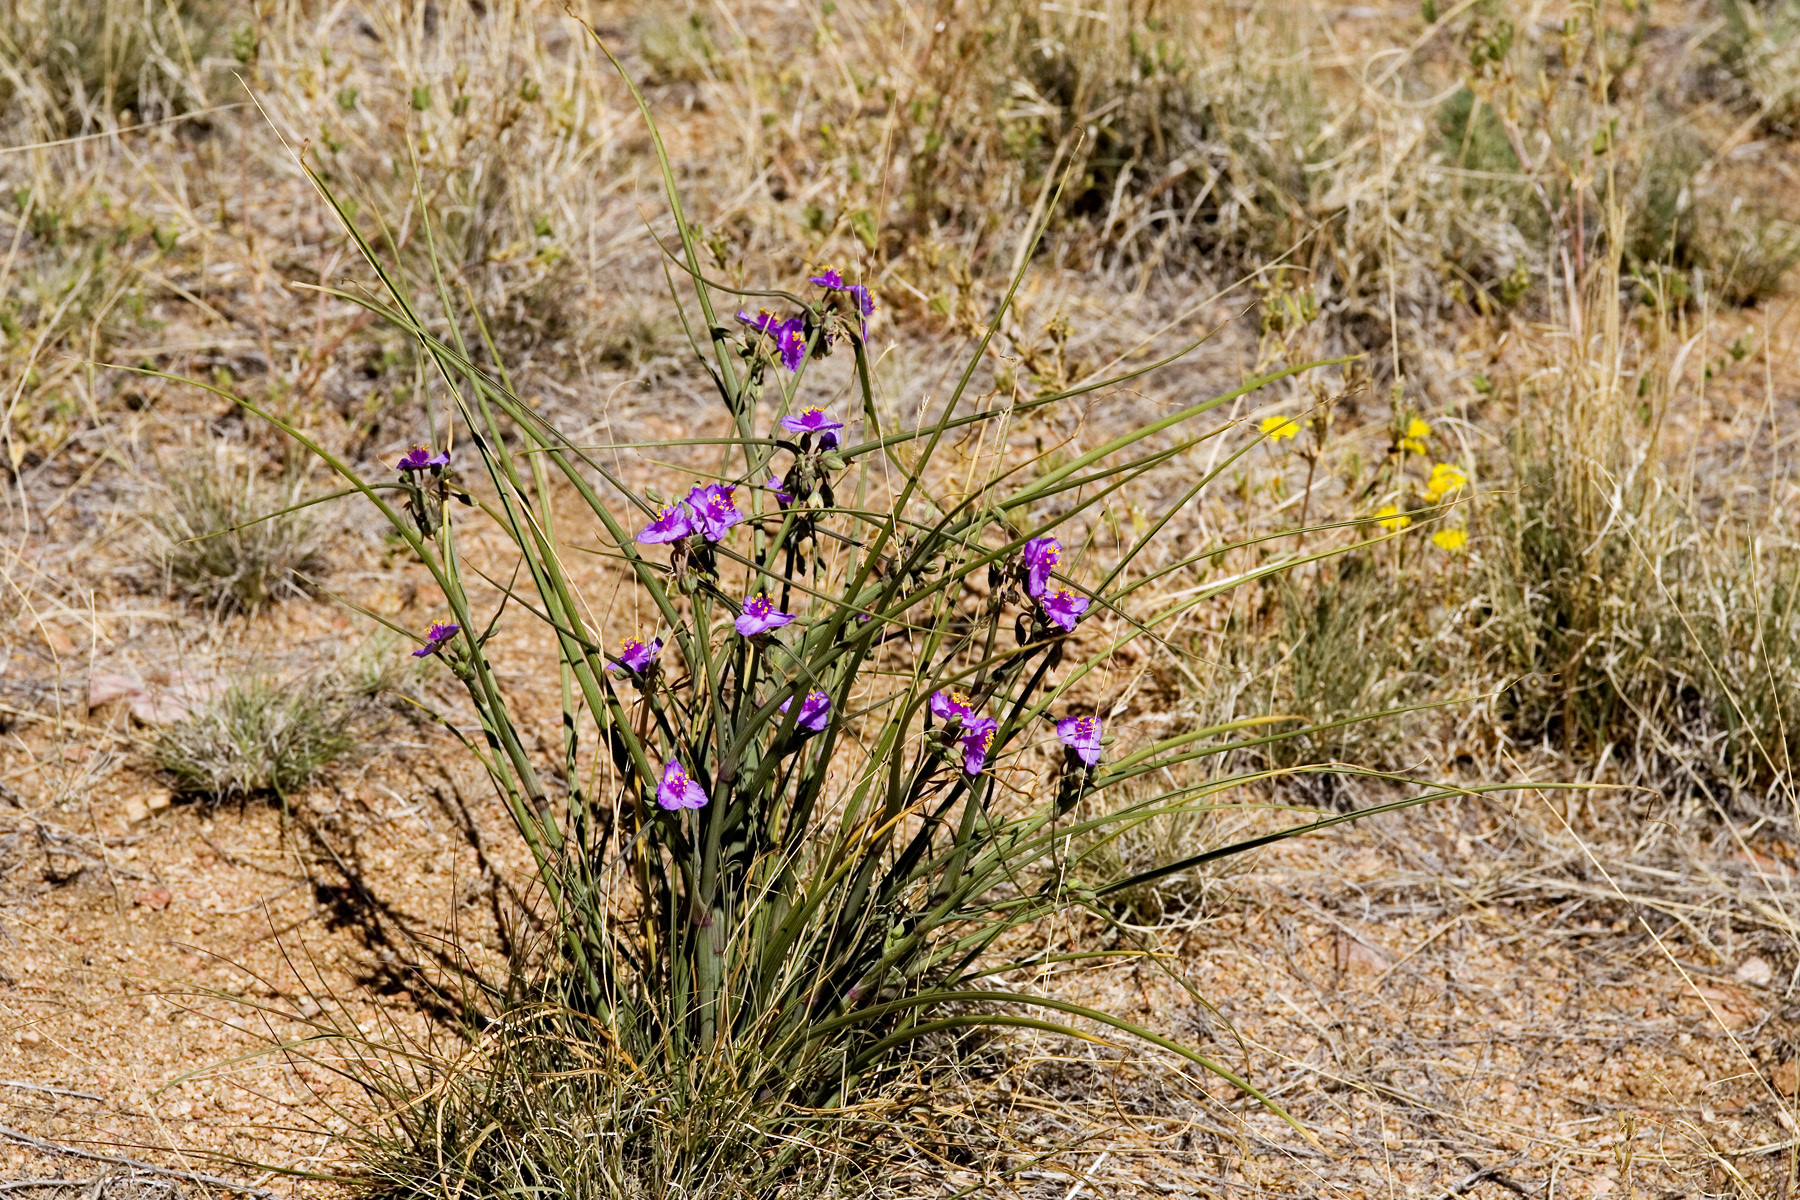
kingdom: Plantae
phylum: Tracheophyta
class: Liliopsida
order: Commelinales
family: Commelinaceae
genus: Tradescantia
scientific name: Tradescantia occidentalis
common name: Prairie spiderwort
